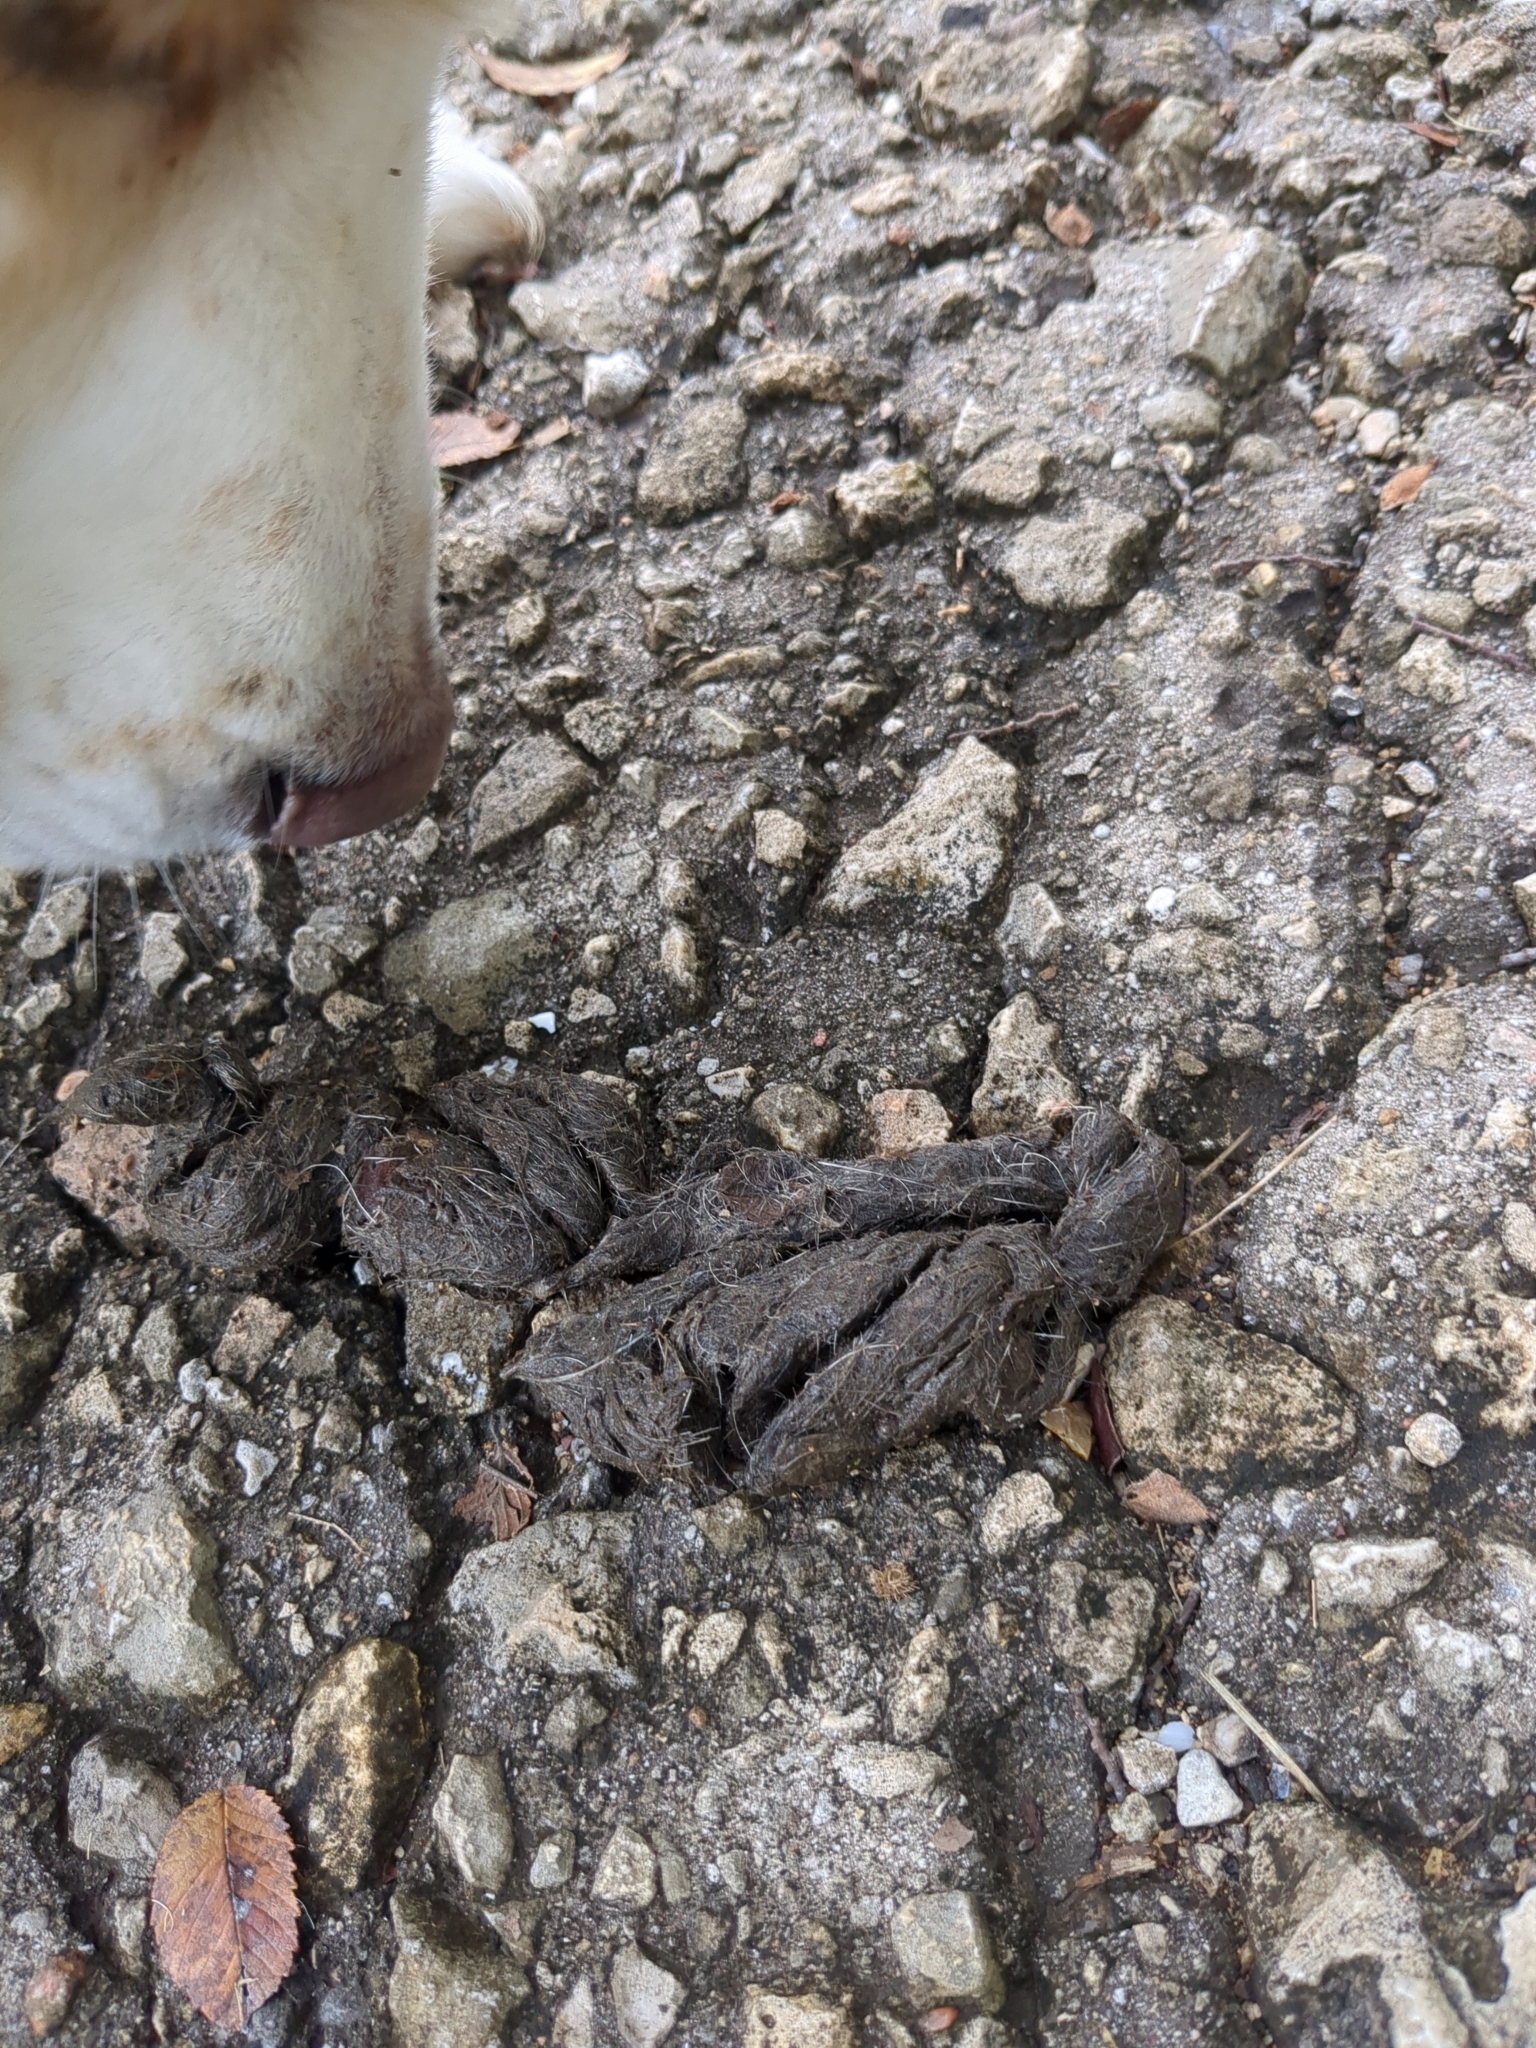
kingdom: Animalia
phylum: Chordata
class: Mammalia
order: Carnivora
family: Canidae
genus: Canis
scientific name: Canis latrans
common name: Coyote
